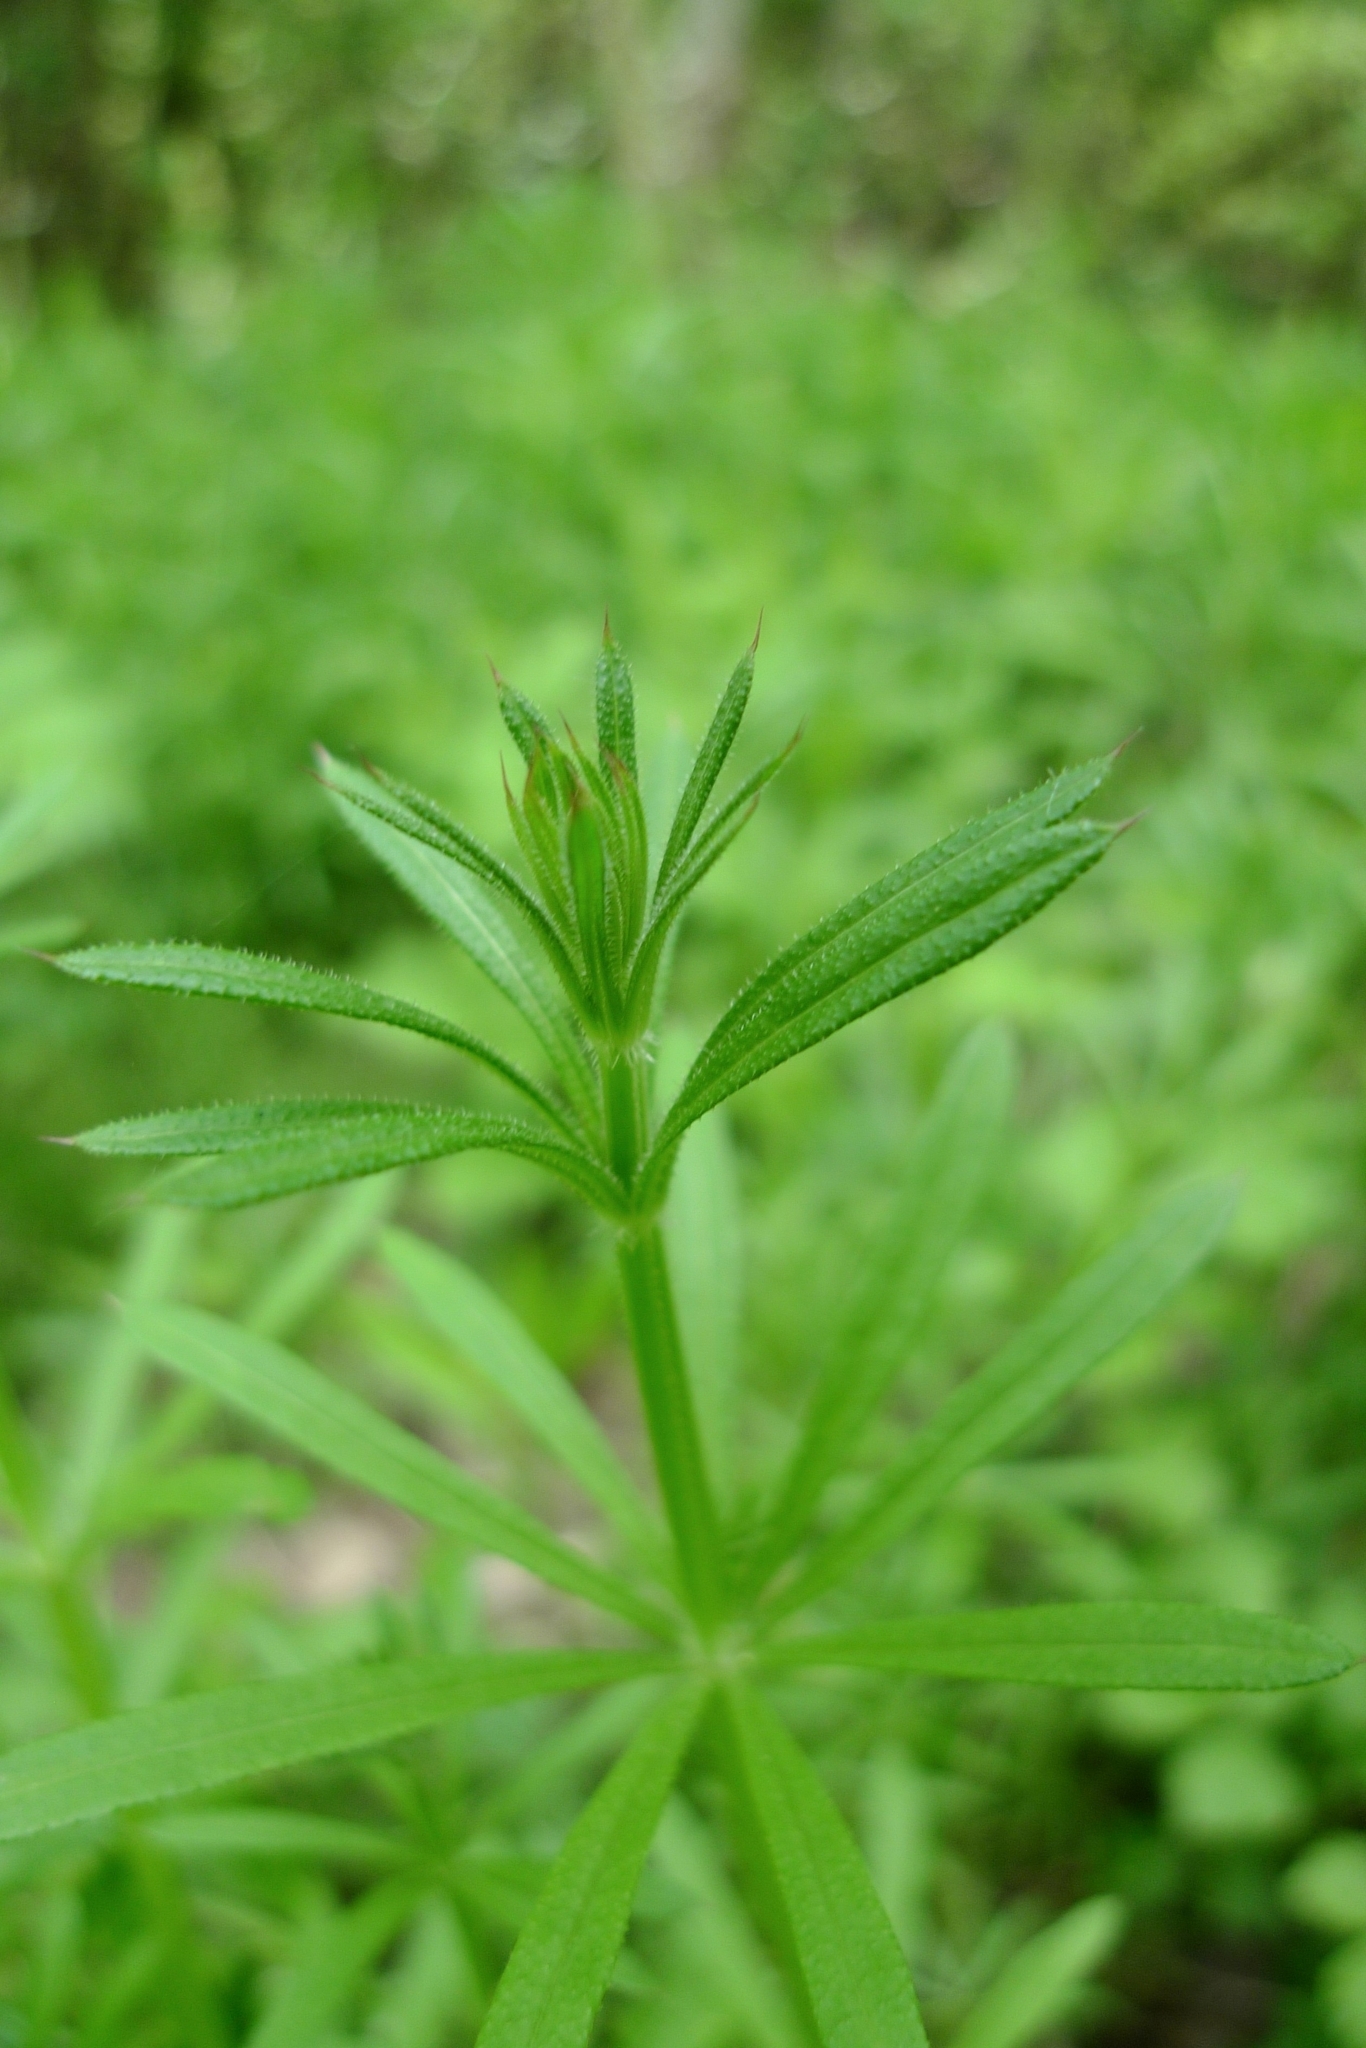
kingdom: Plantae
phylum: Tracheophyta
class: Magnoliopsida
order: Gentianales
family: Rubiaceae
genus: Galium
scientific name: Galium aparine
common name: Cleavers
